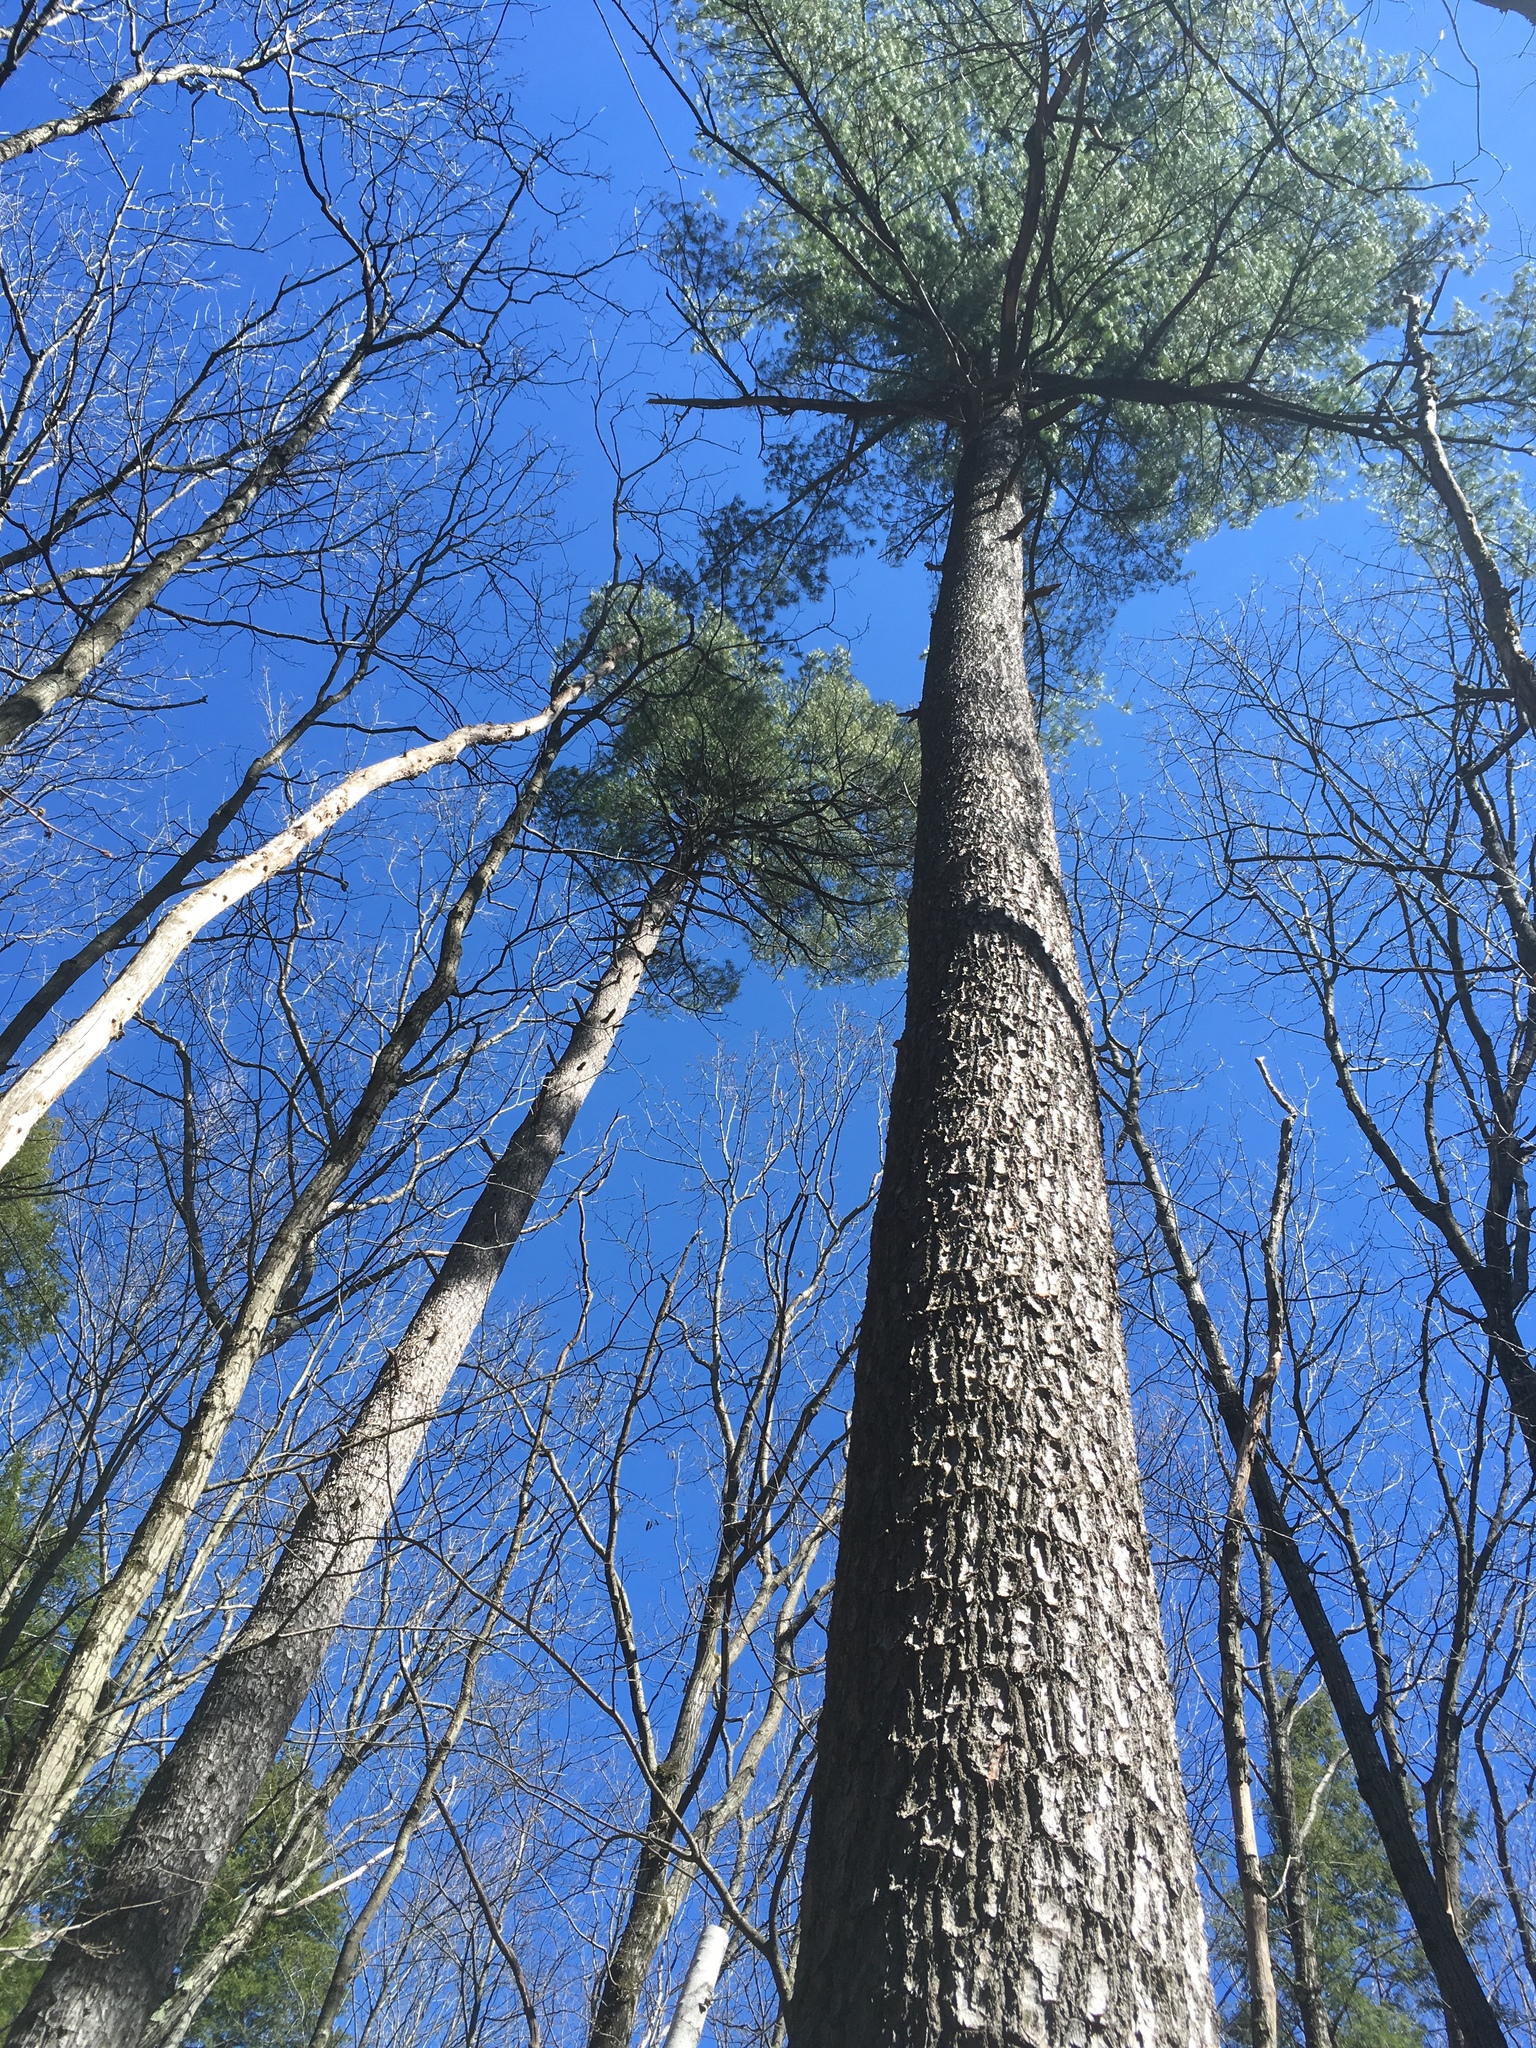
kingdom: Plantae
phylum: Tracheophyta
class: Pinopsida
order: Pinales
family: Pinaceae
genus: Pinus
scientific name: Pinus strobus
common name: Weymouth pine
